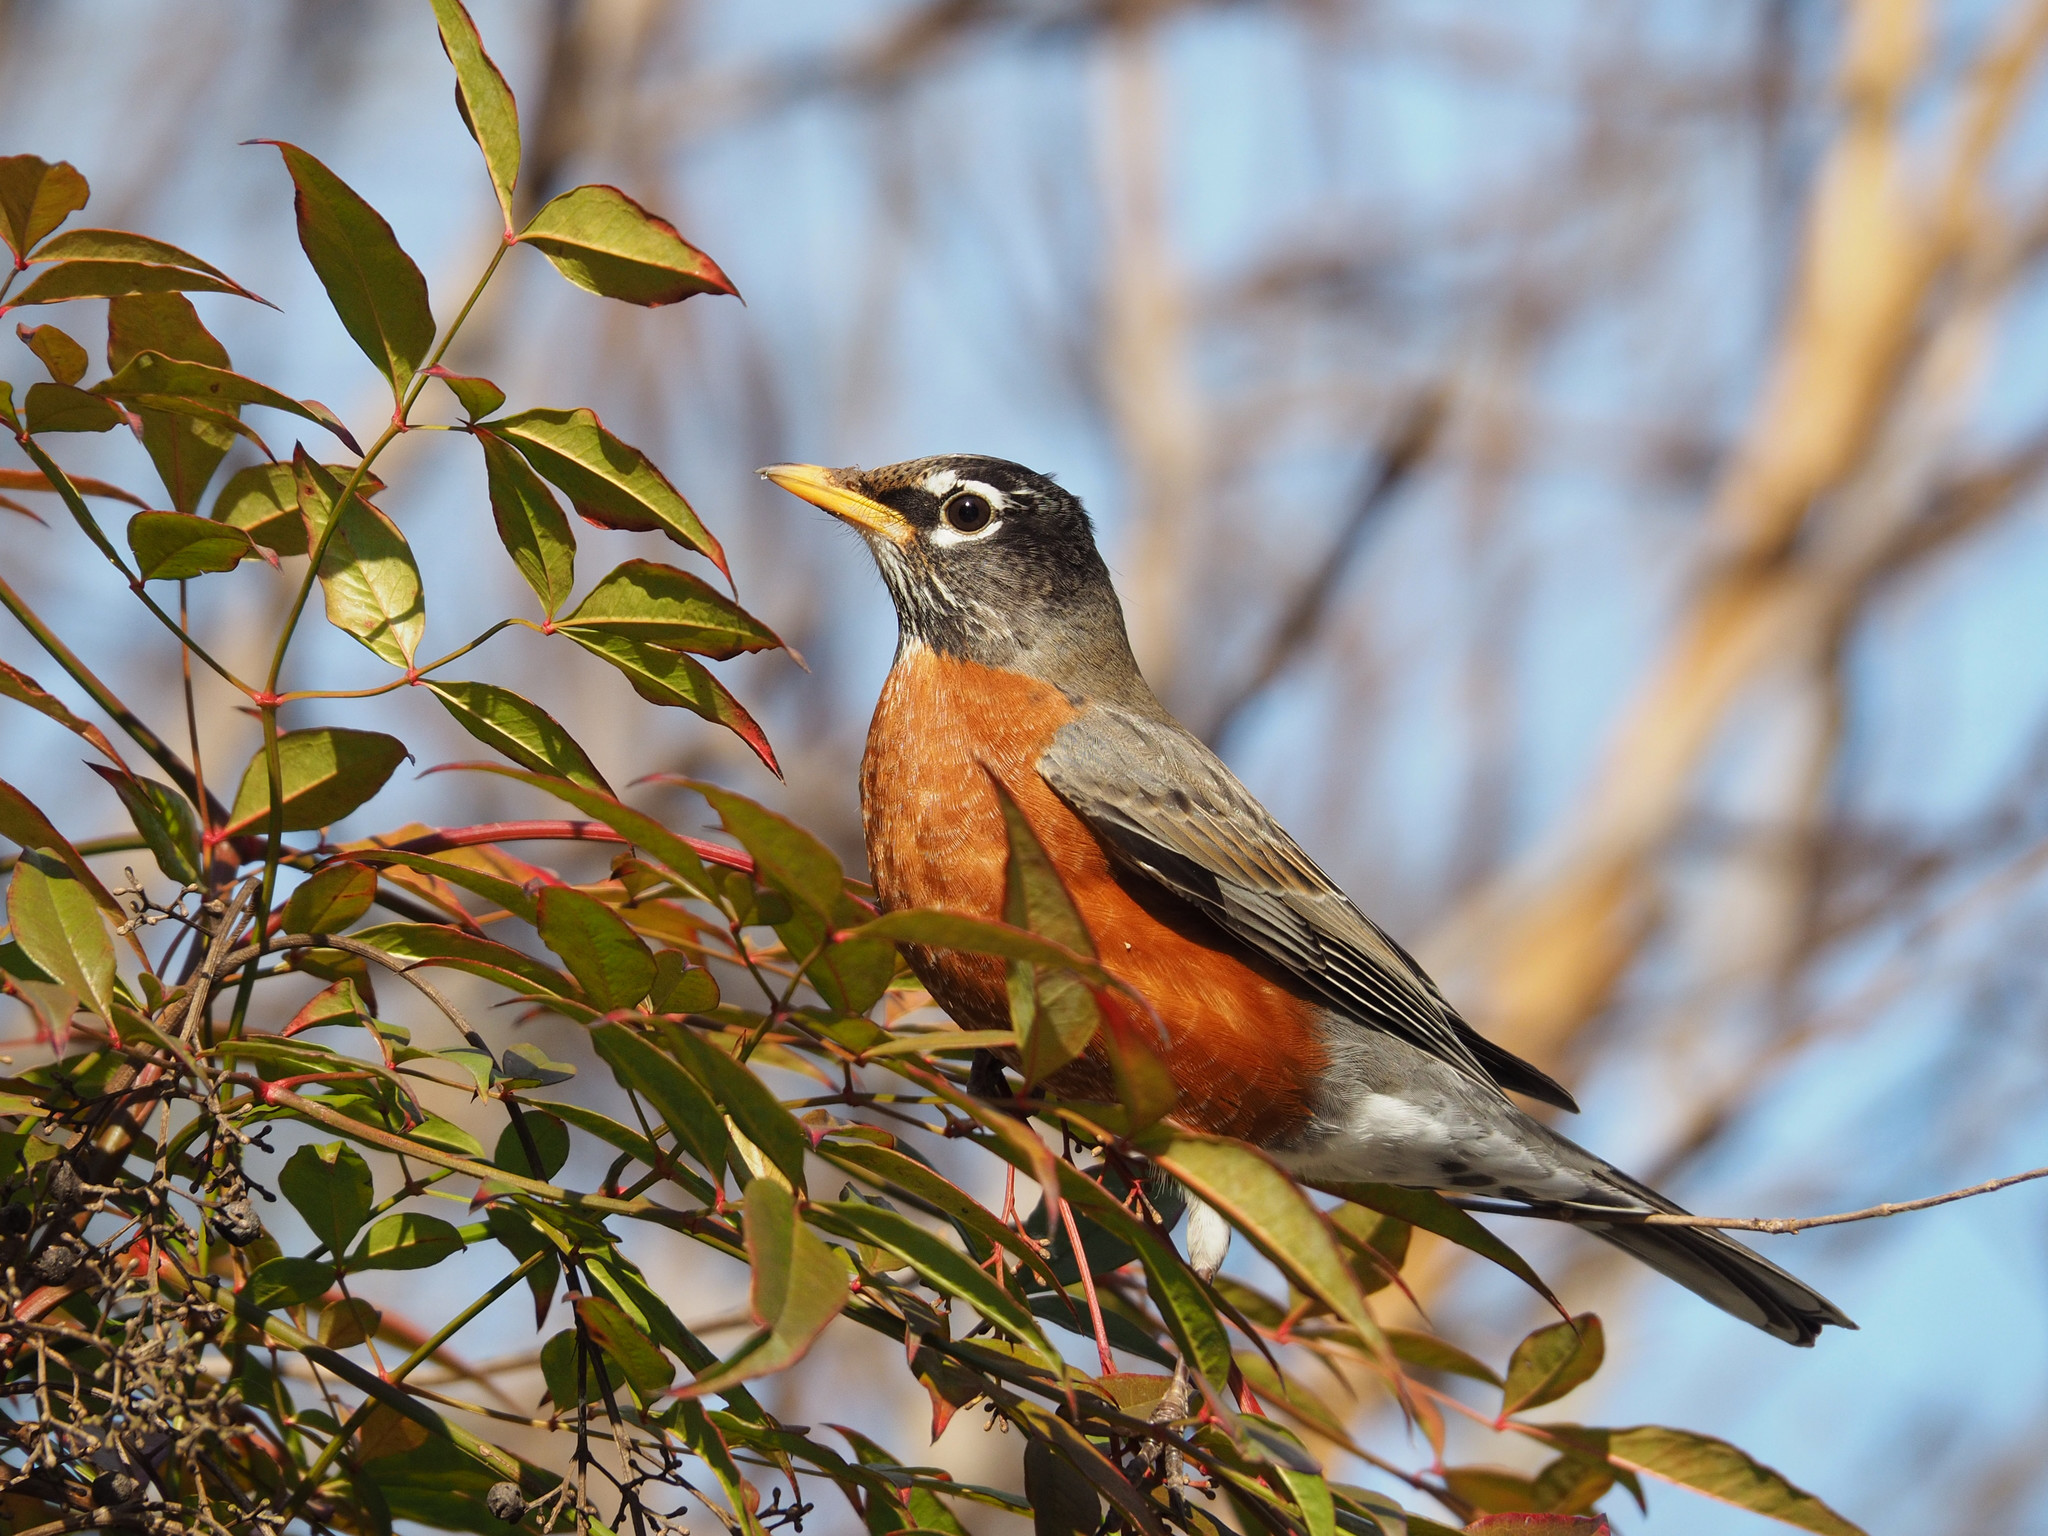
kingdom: Animalia
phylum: Chordata
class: Aves
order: Passeriformes
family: Turdidae
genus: Turdus
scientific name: Turdus migratorius
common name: American robin
